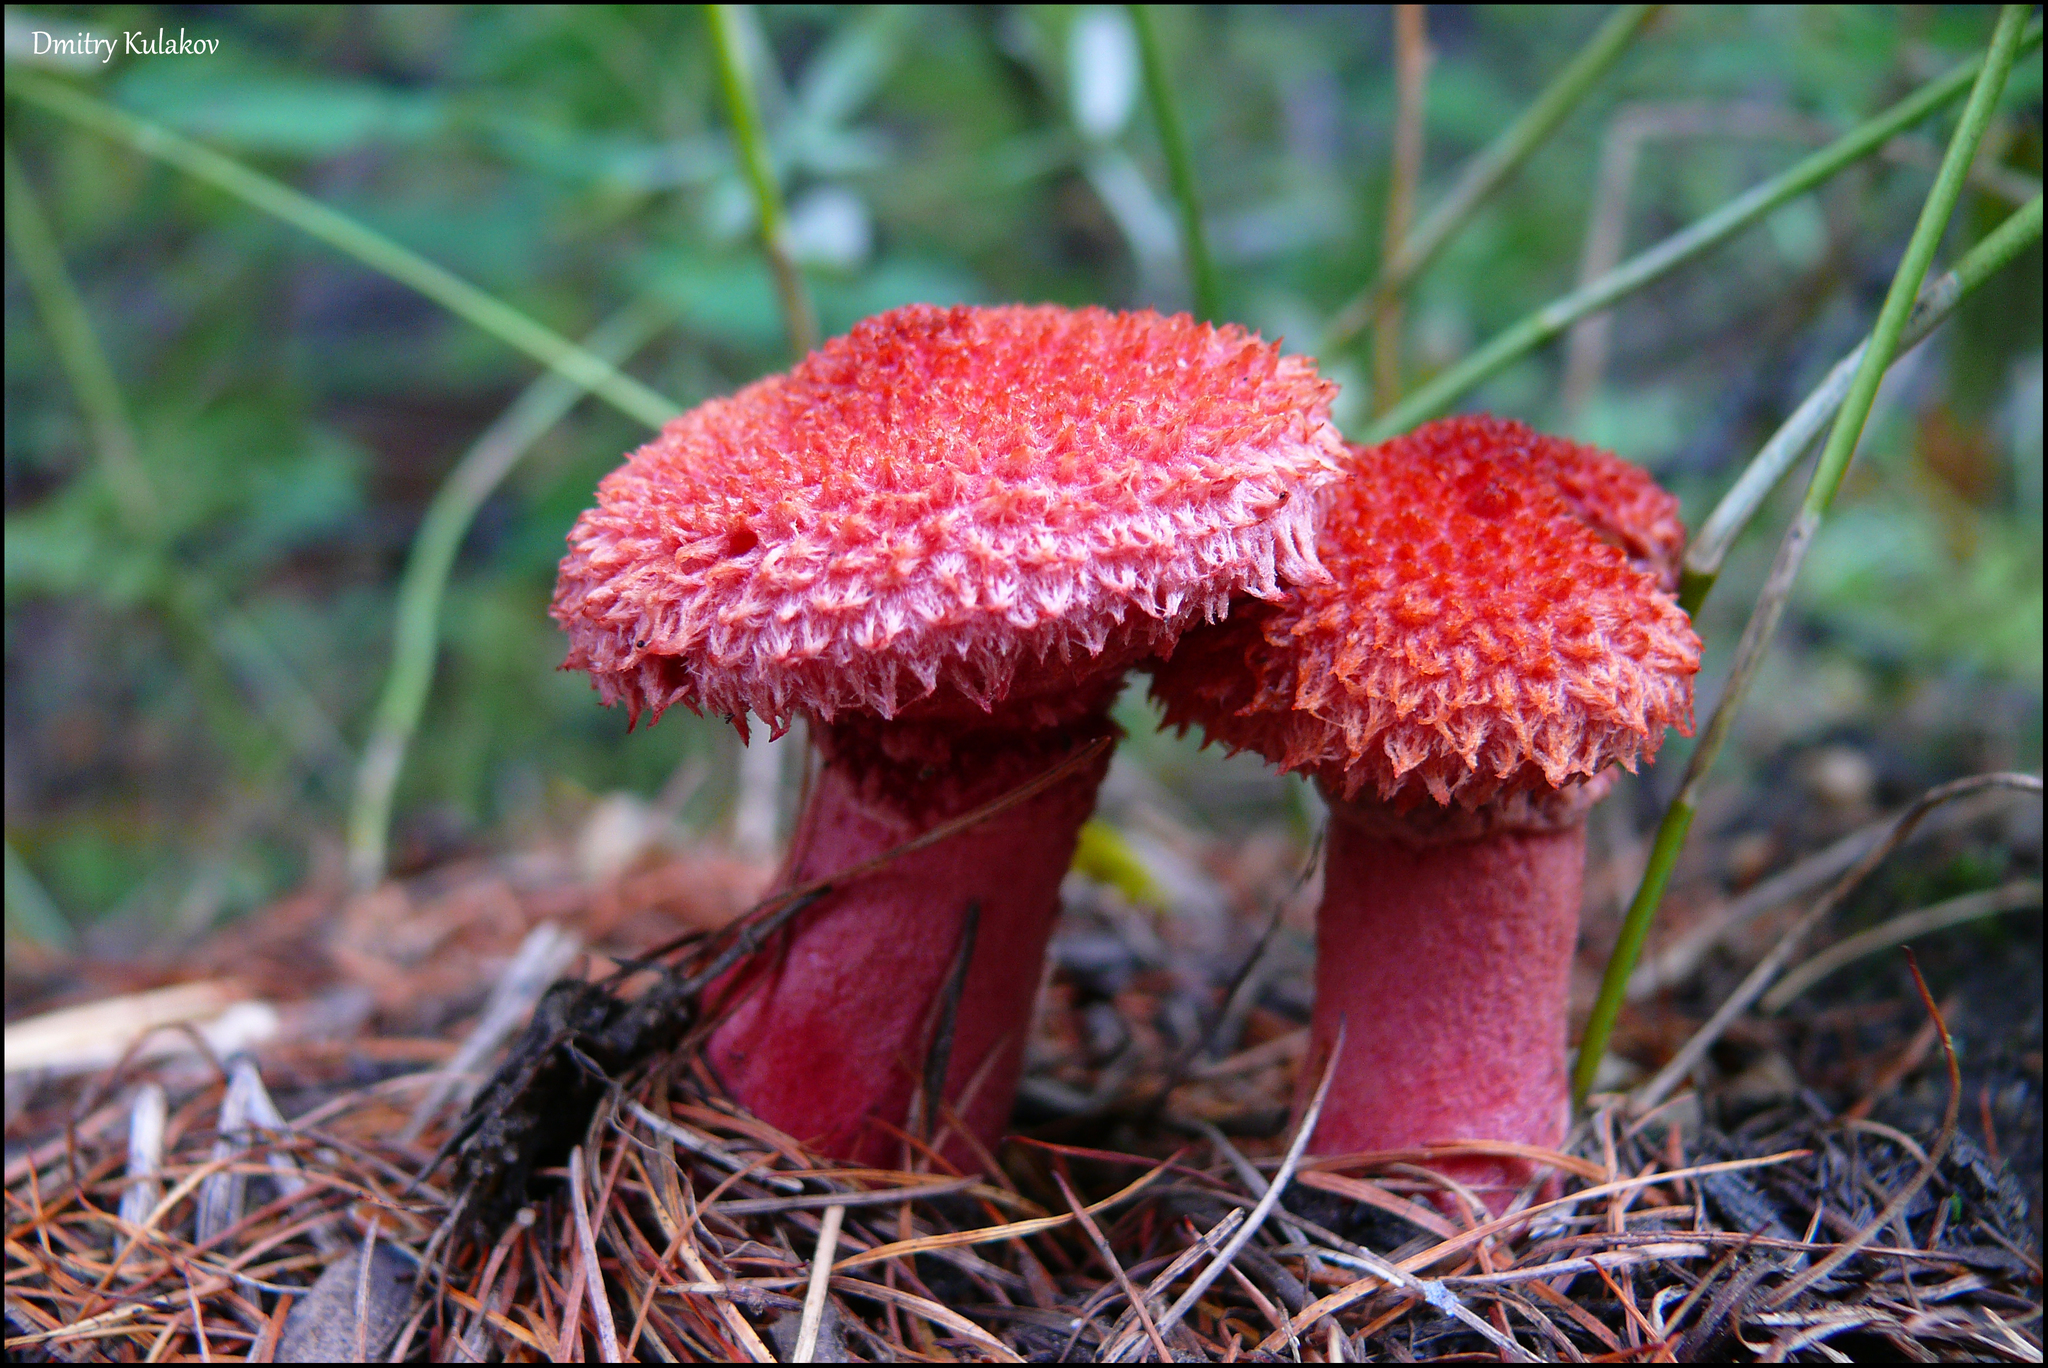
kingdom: Fungi
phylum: Basidiomycota
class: Agaricomycetes
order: Boletales
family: Suillaceae
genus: Boletinus
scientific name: Boletinus asiaticus
